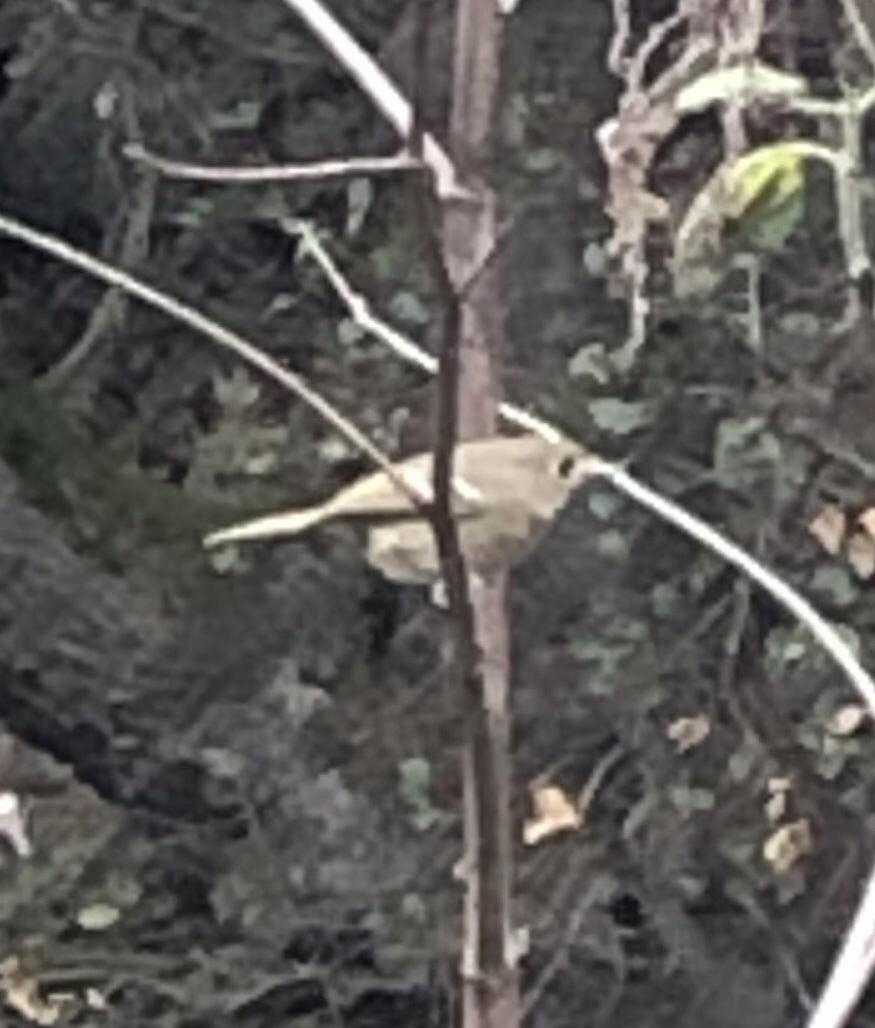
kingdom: Animalia
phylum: Chordata
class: Aves
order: Passeriformes
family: Regulidae
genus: Regulus
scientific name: Regulus calendula
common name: Ruby-crowned kinglet
